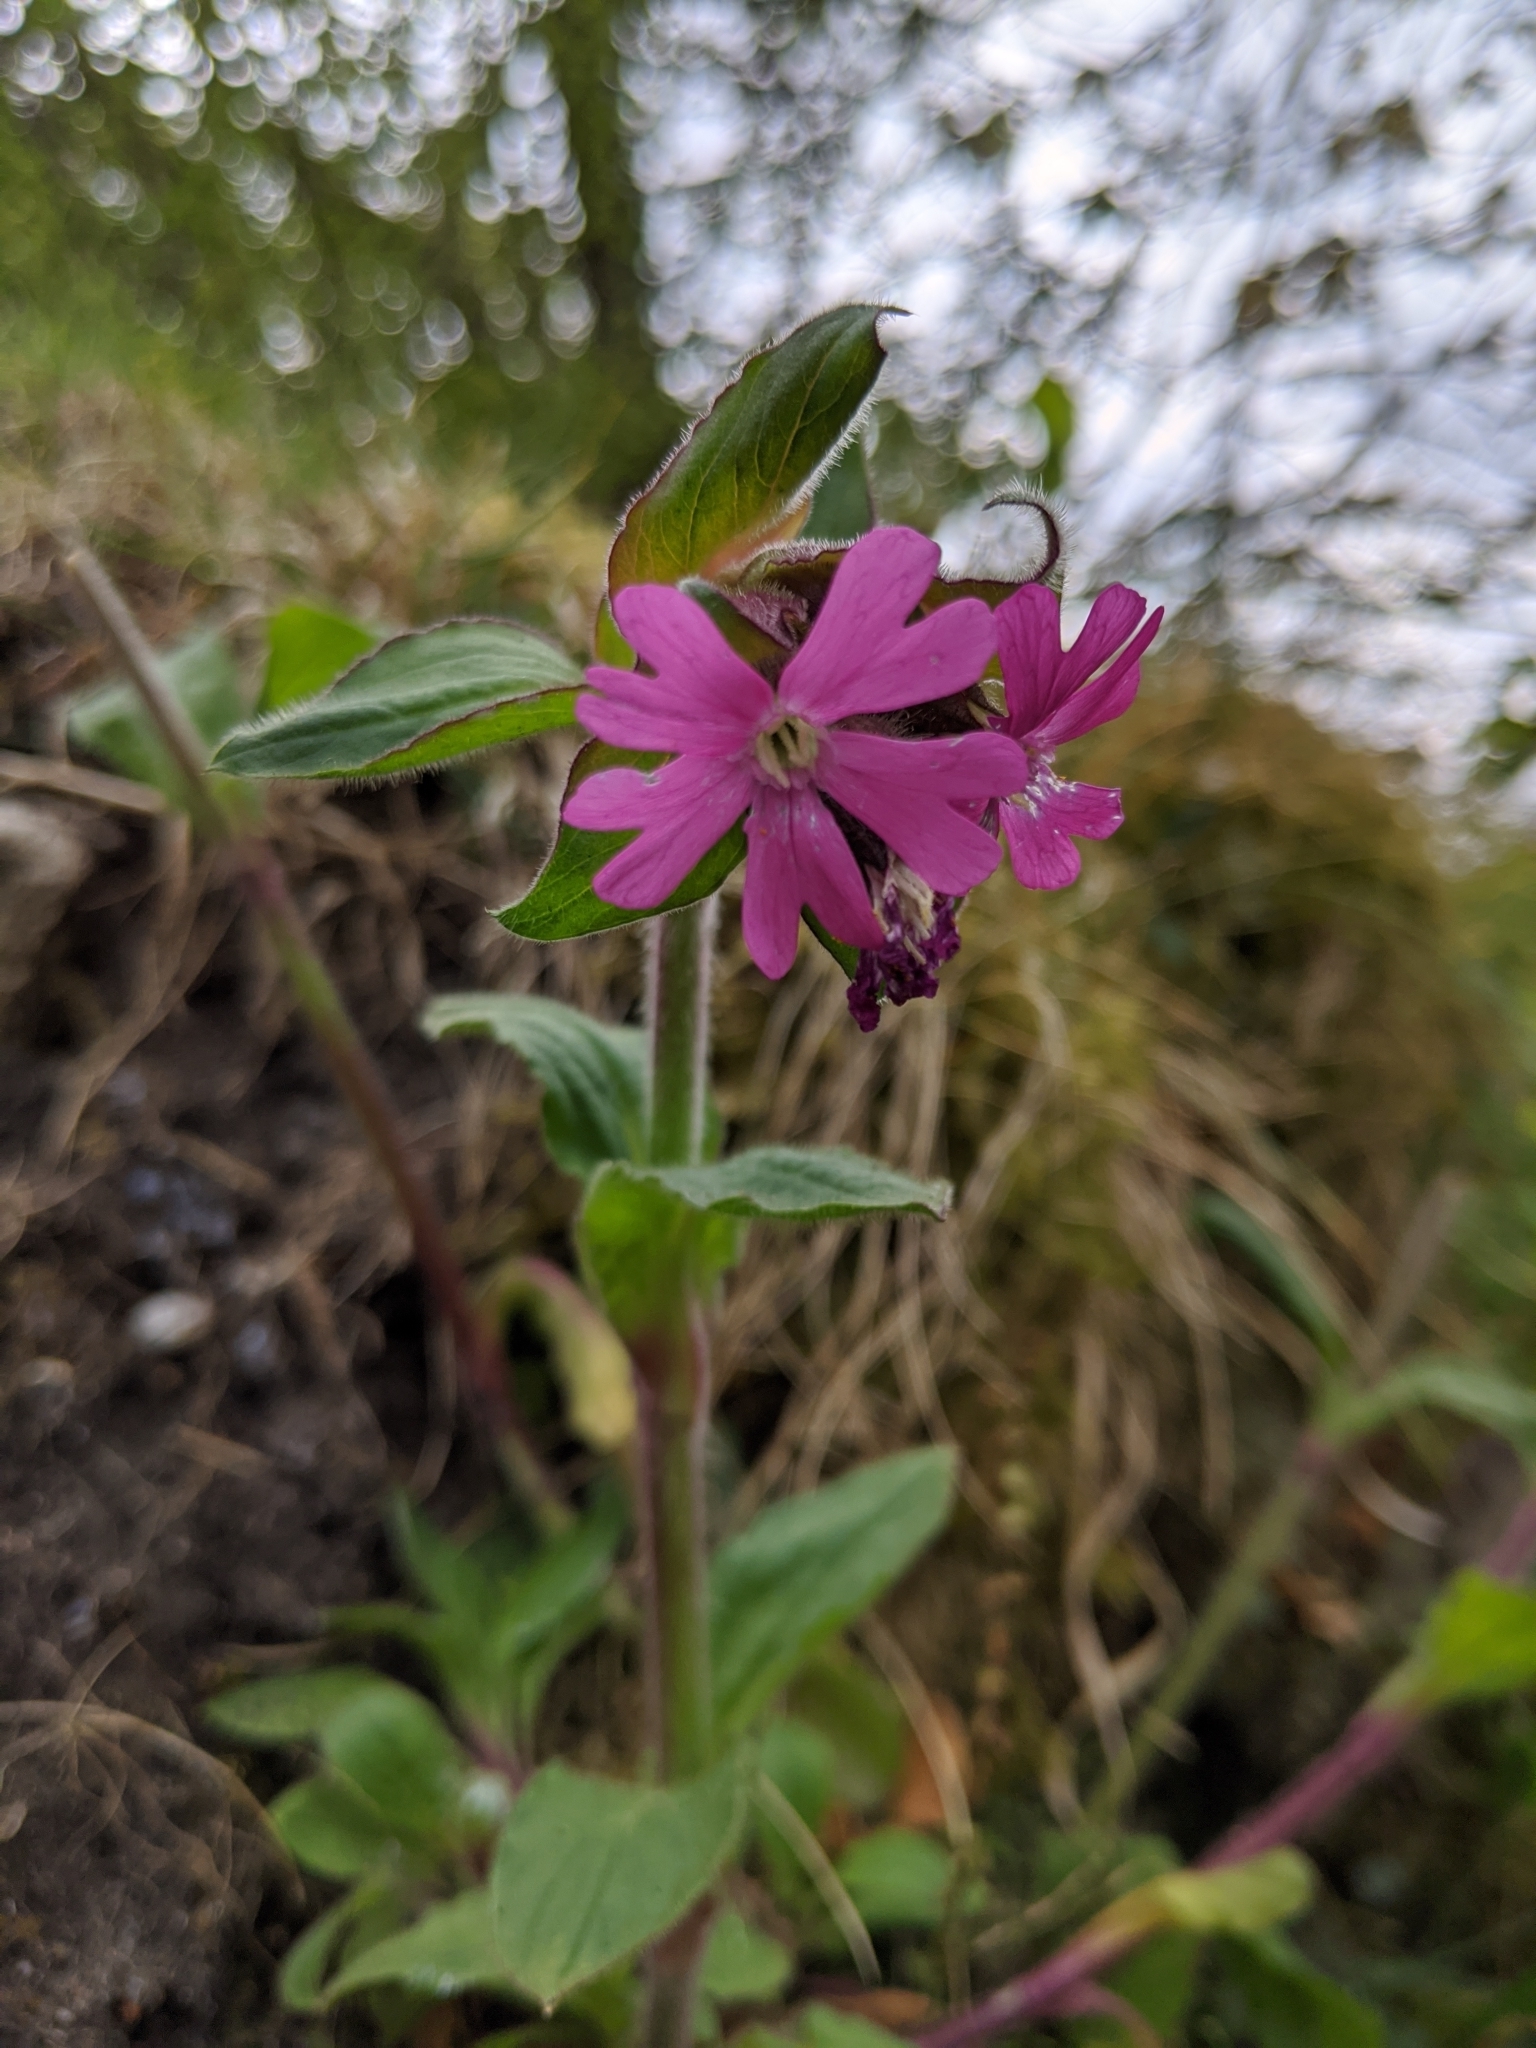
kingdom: Plantae
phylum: Tracheophyta
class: Magnoliopsida
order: Caryophyllales
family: Caryophyllaceae
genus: Silene
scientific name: Silene dioica
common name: Red campion
